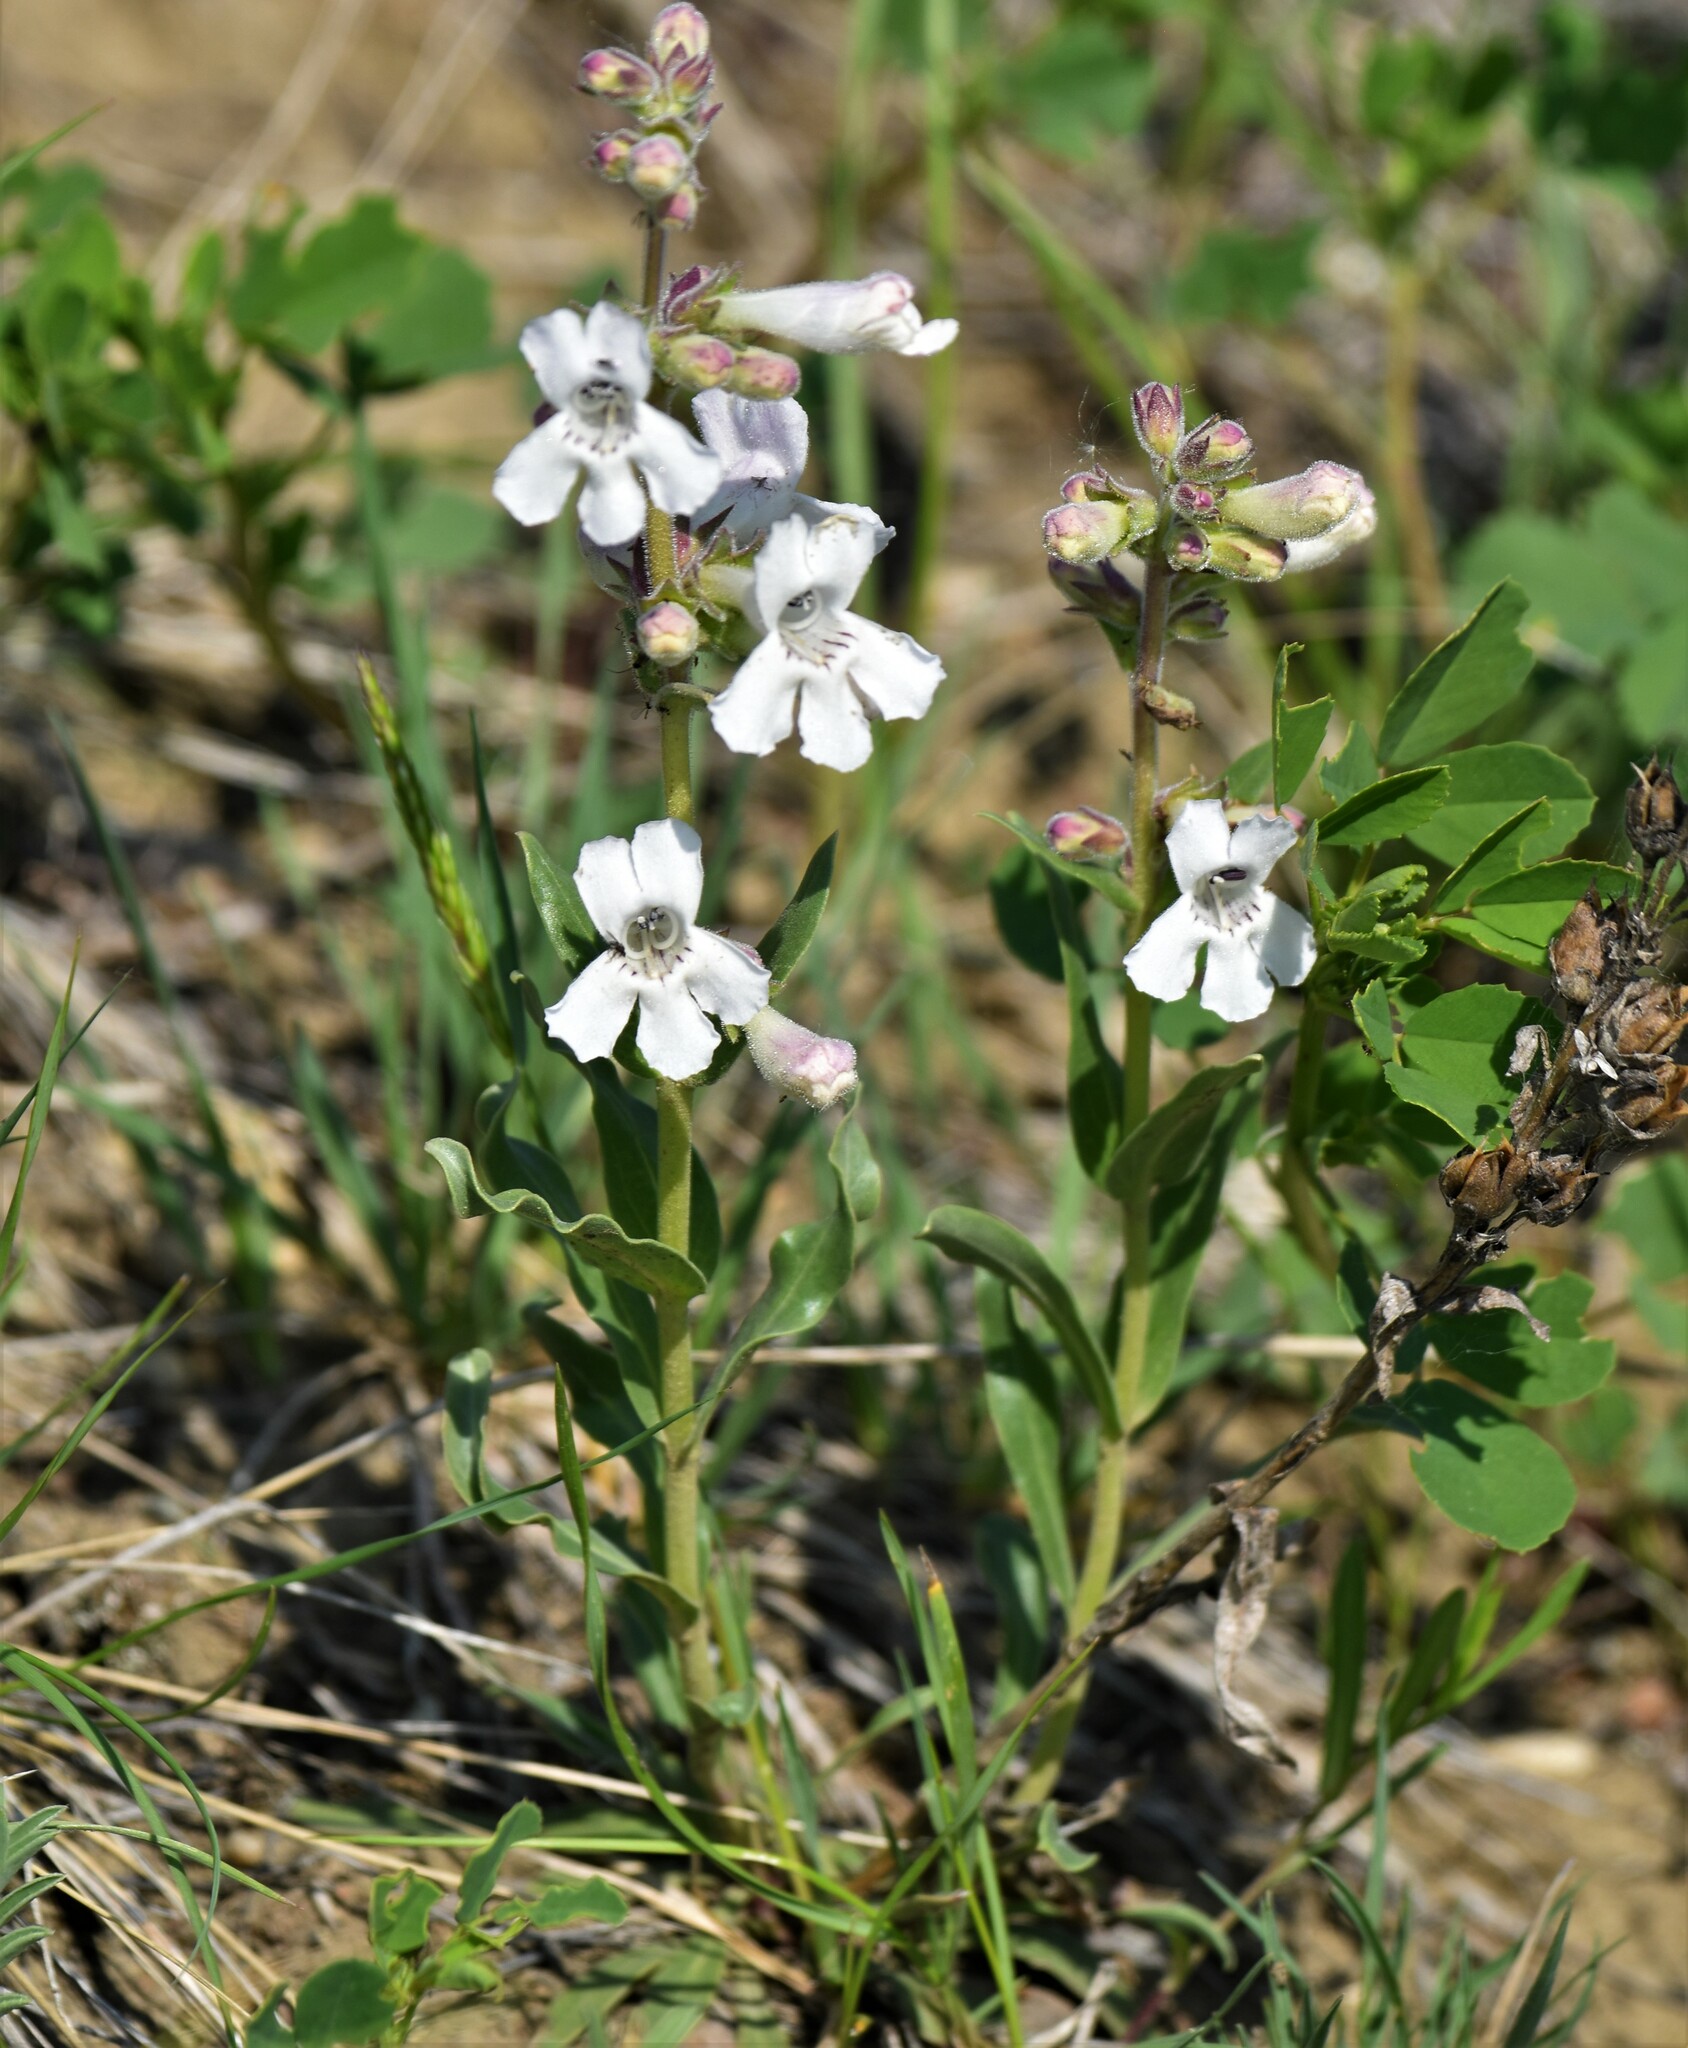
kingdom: Plantae
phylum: Tracheophyta
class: Magnoliopsida
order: Lamiales
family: Plantaginaceae
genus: Penstemon
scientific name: Penstemon albidus
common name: White beardtongue
